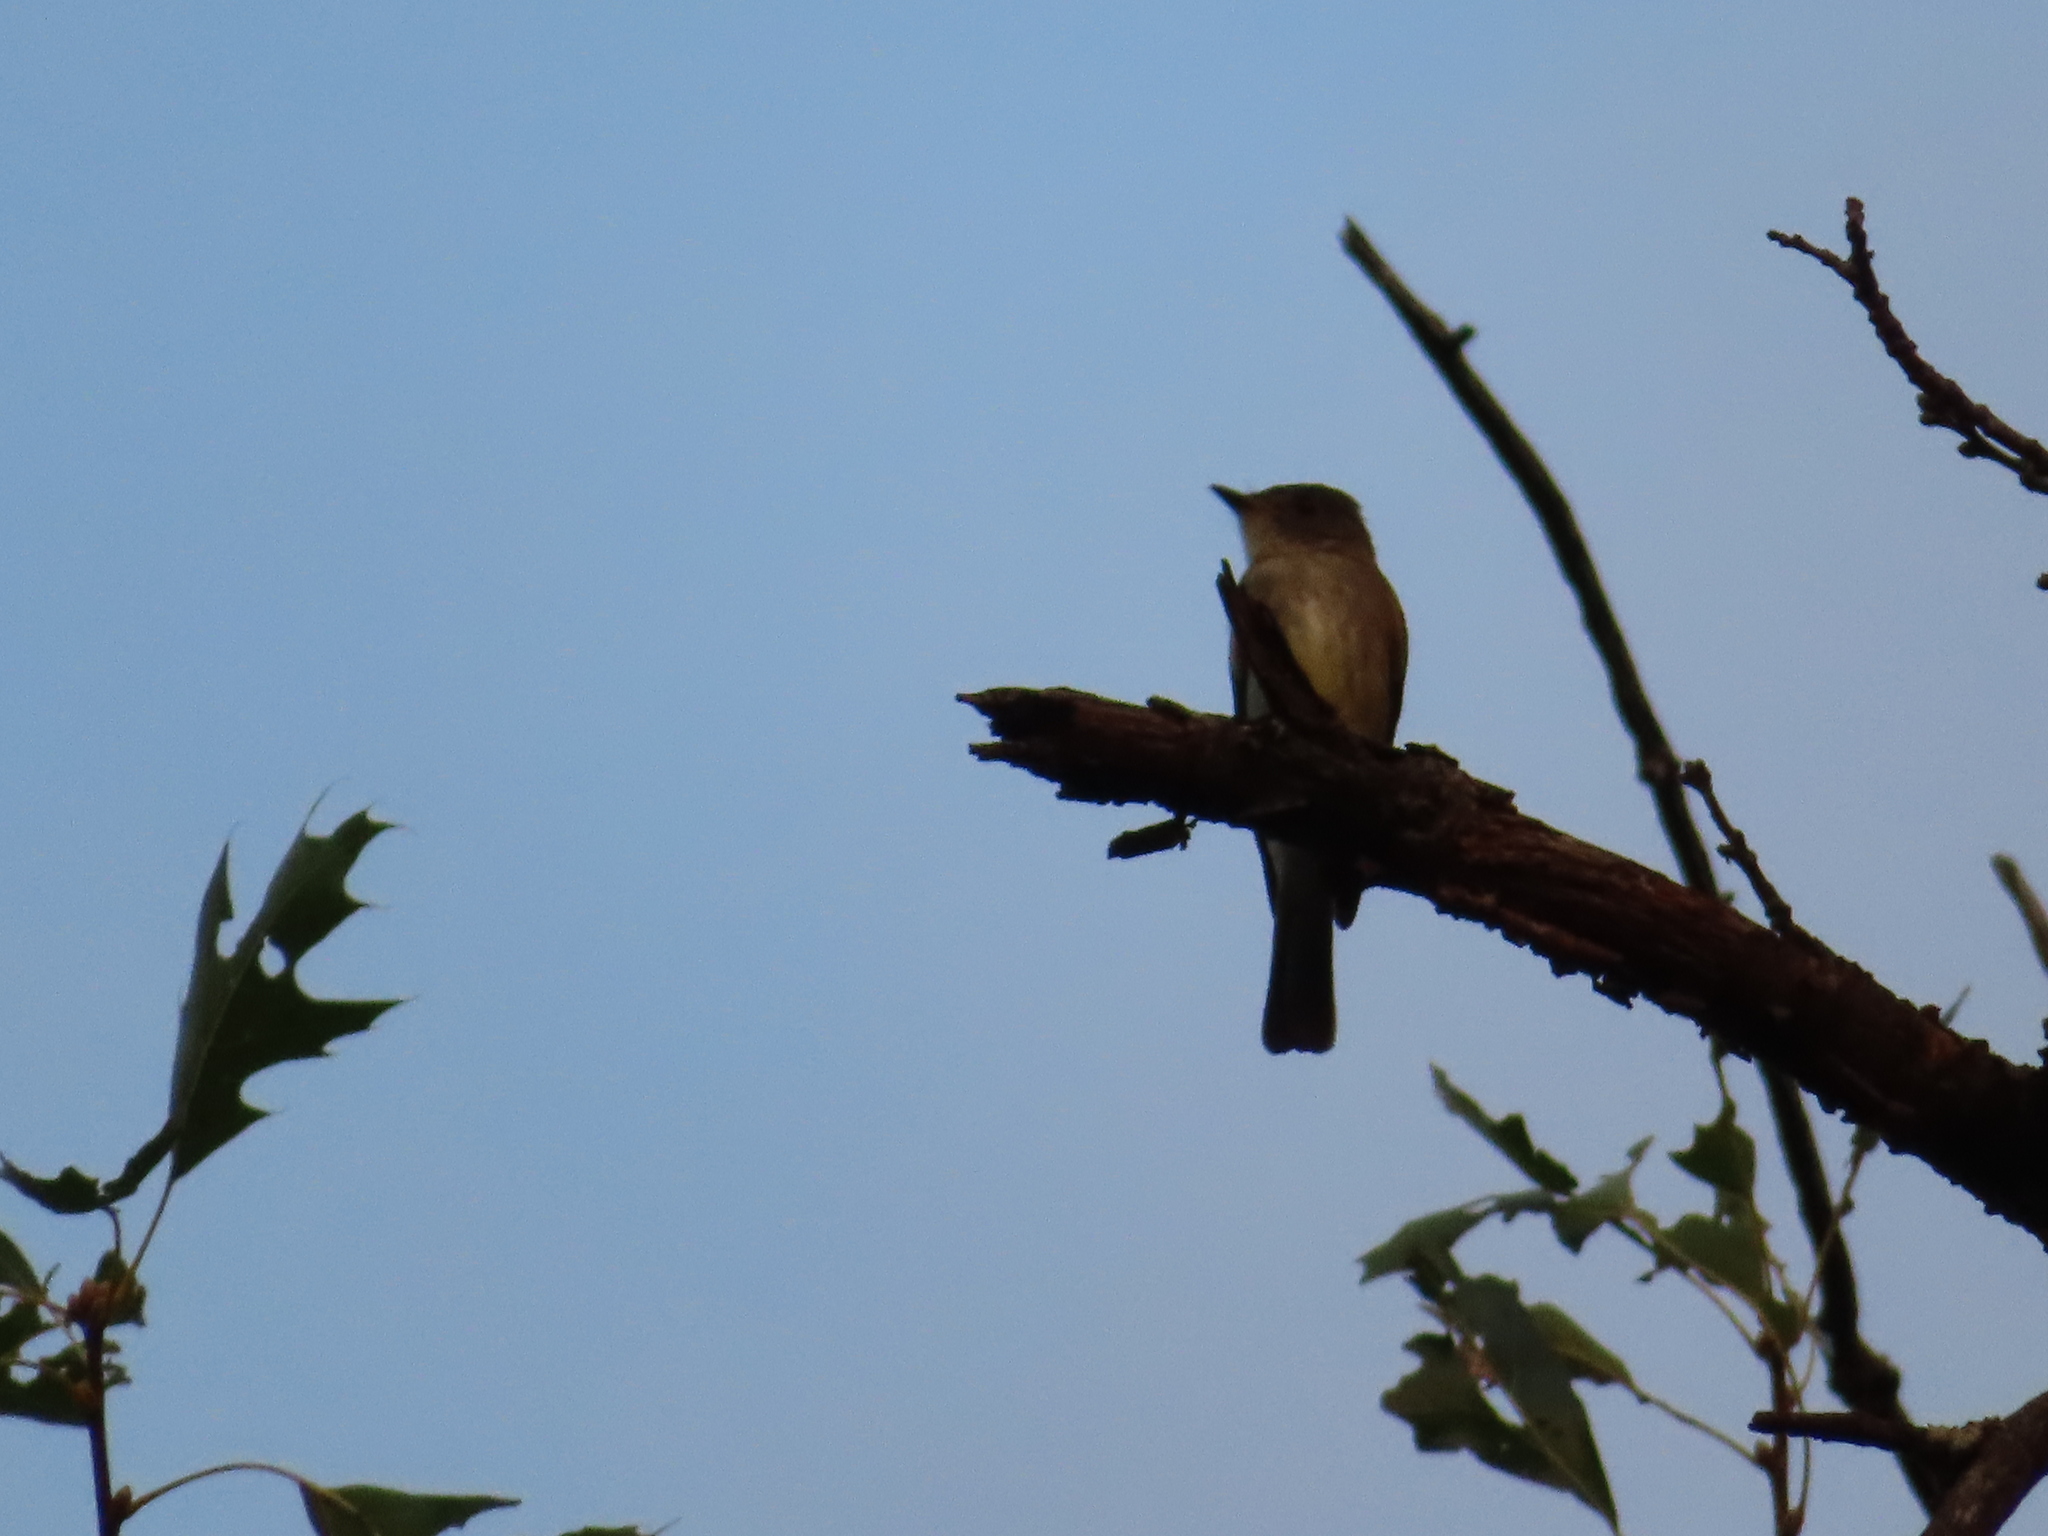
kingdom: Animalia
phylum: Chordata
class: Aves
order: Passeriformes
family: Tyrannidae
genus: Contopus
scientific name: Contopus virens
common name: Eastern wood-pewee
